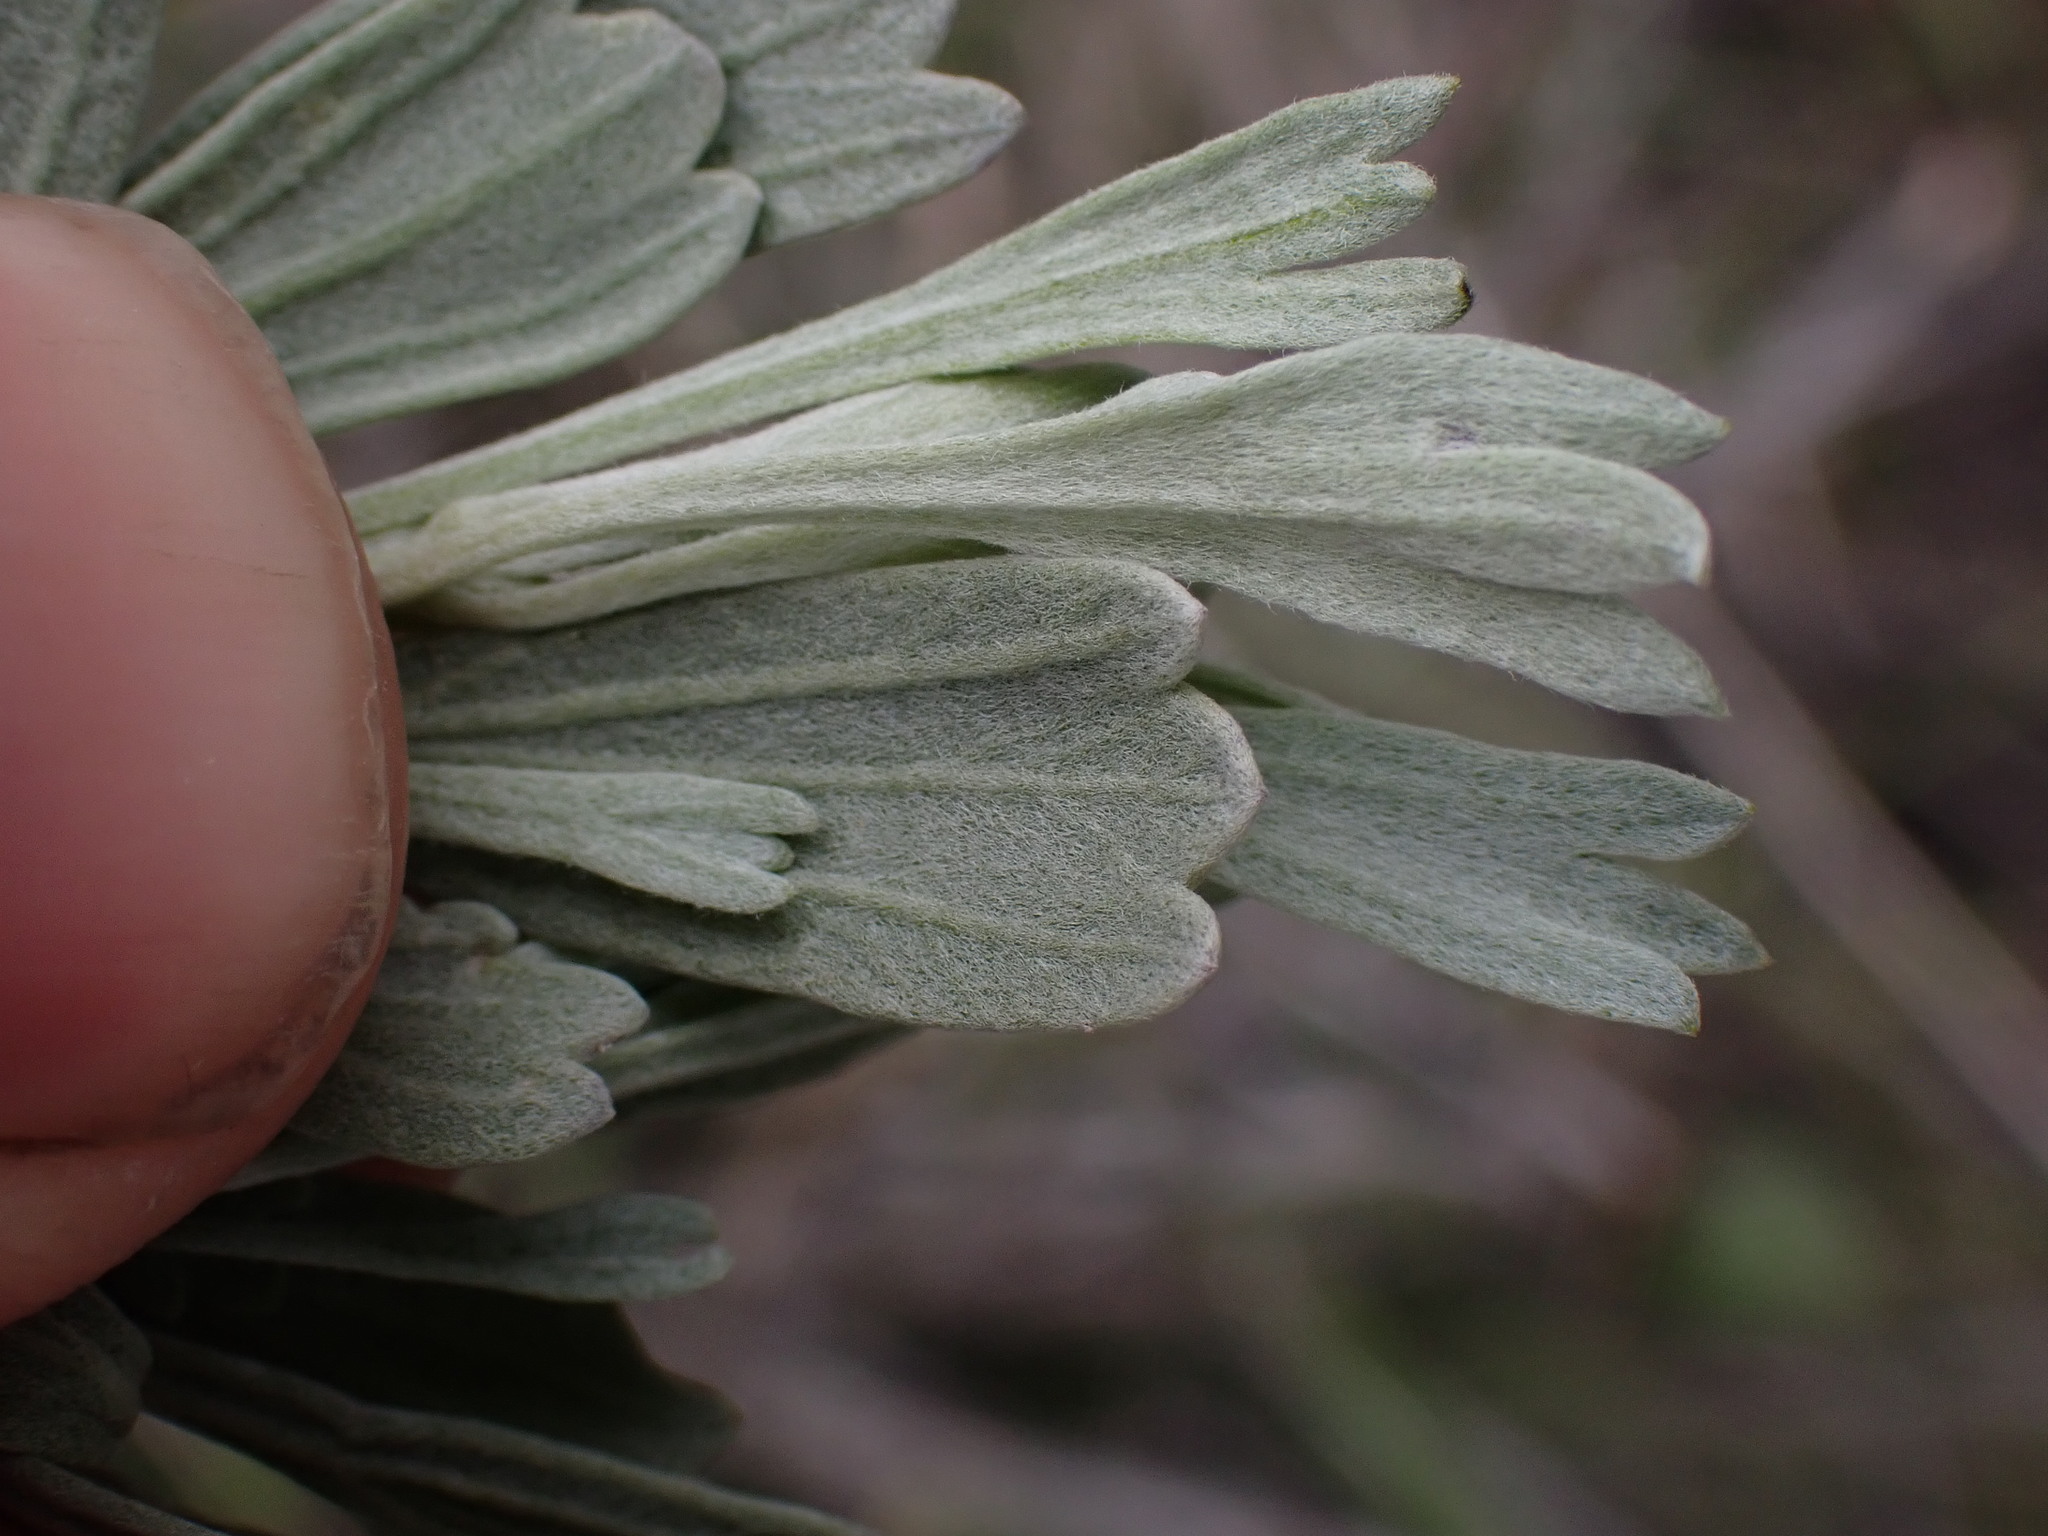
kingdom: Plantae
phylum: Tracheophyta
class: Magnoliopsida
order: Asterales
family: Asteraceae
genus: Artemisia
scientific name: Artemisia tridentata
